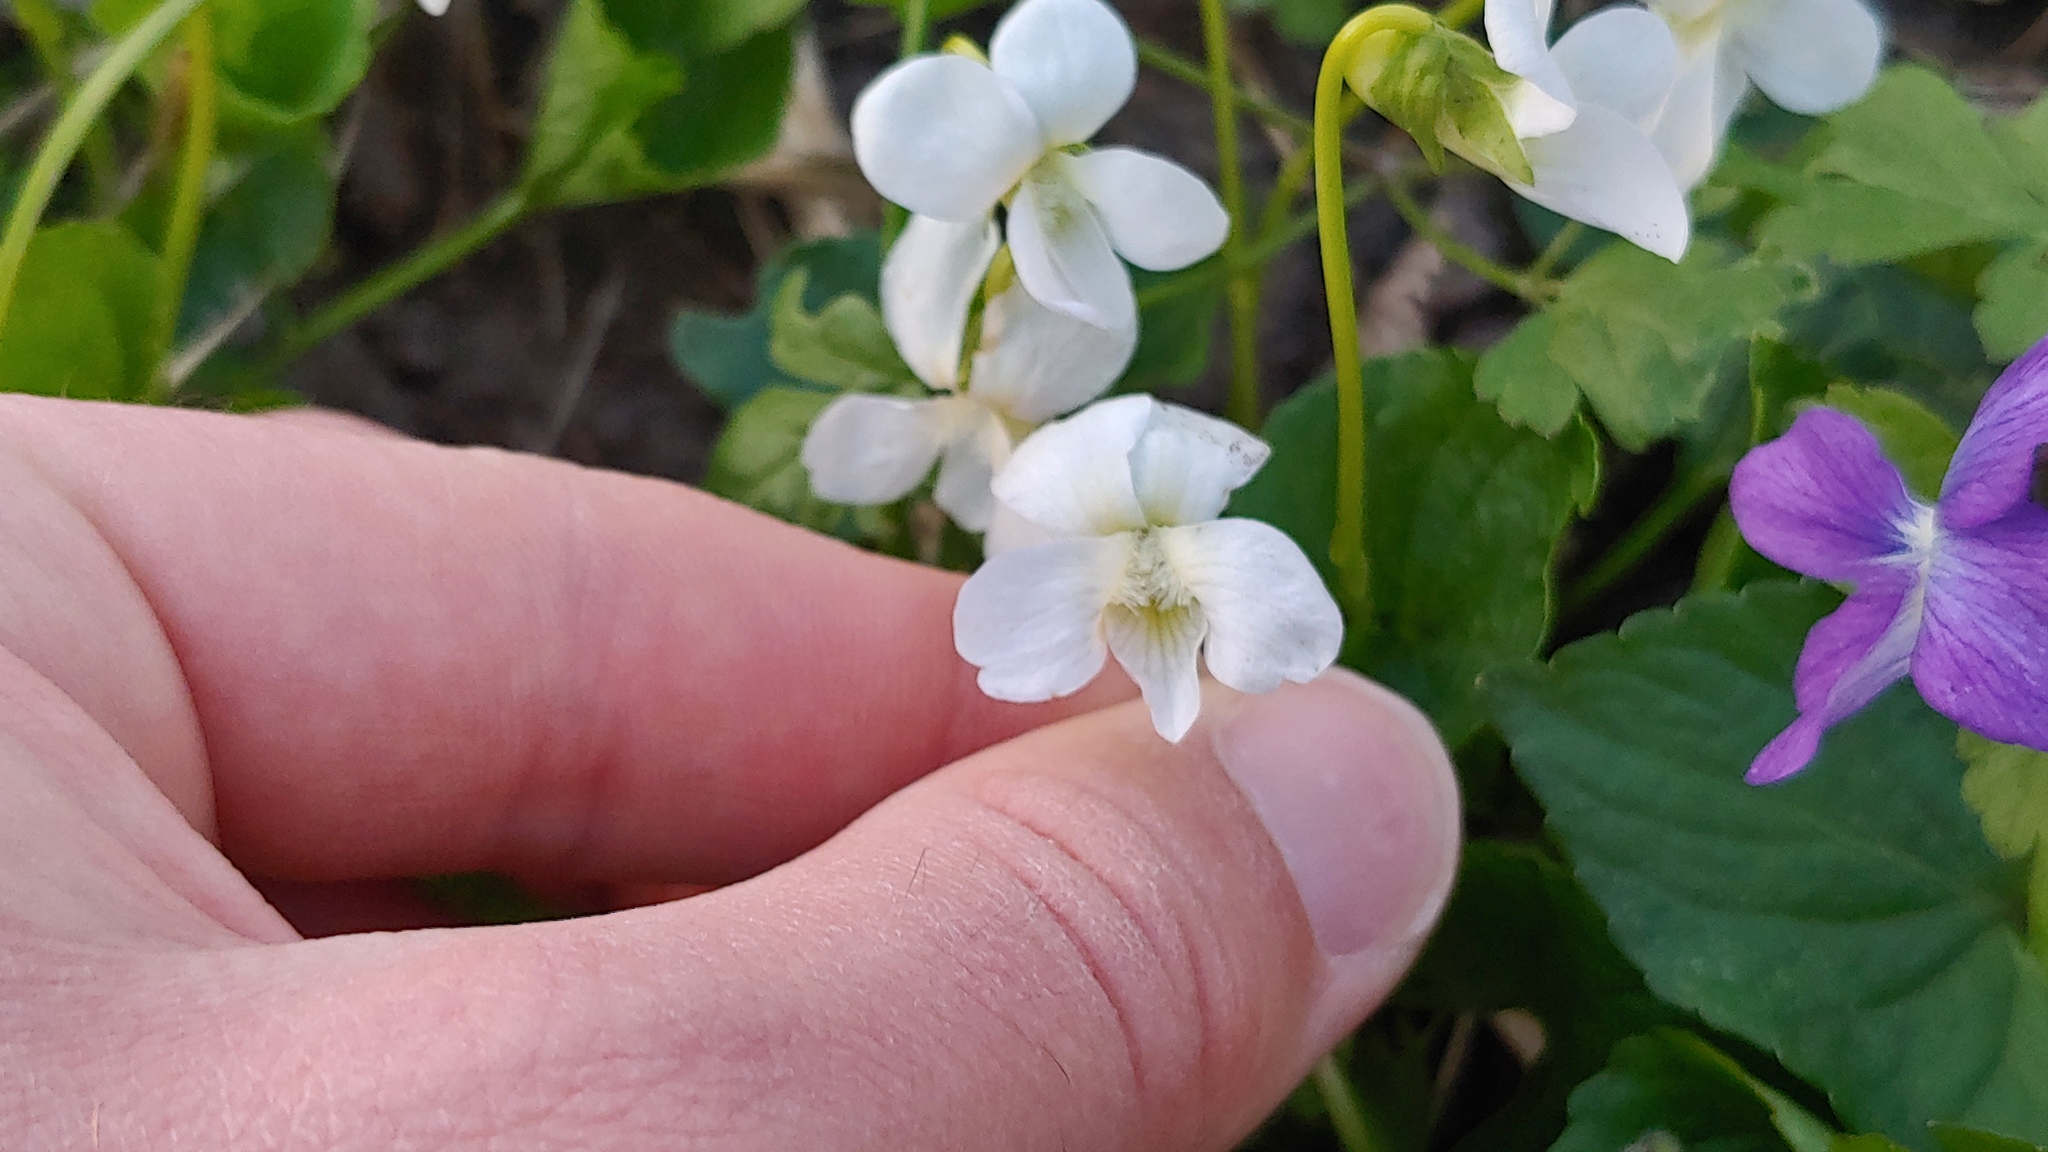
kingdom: Plantae
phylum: Tracheophyta
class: Magnoliopsida
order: Malpighiales
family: Violaceae
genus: Viola
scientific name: Viola sororia
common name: Dooryard violet
